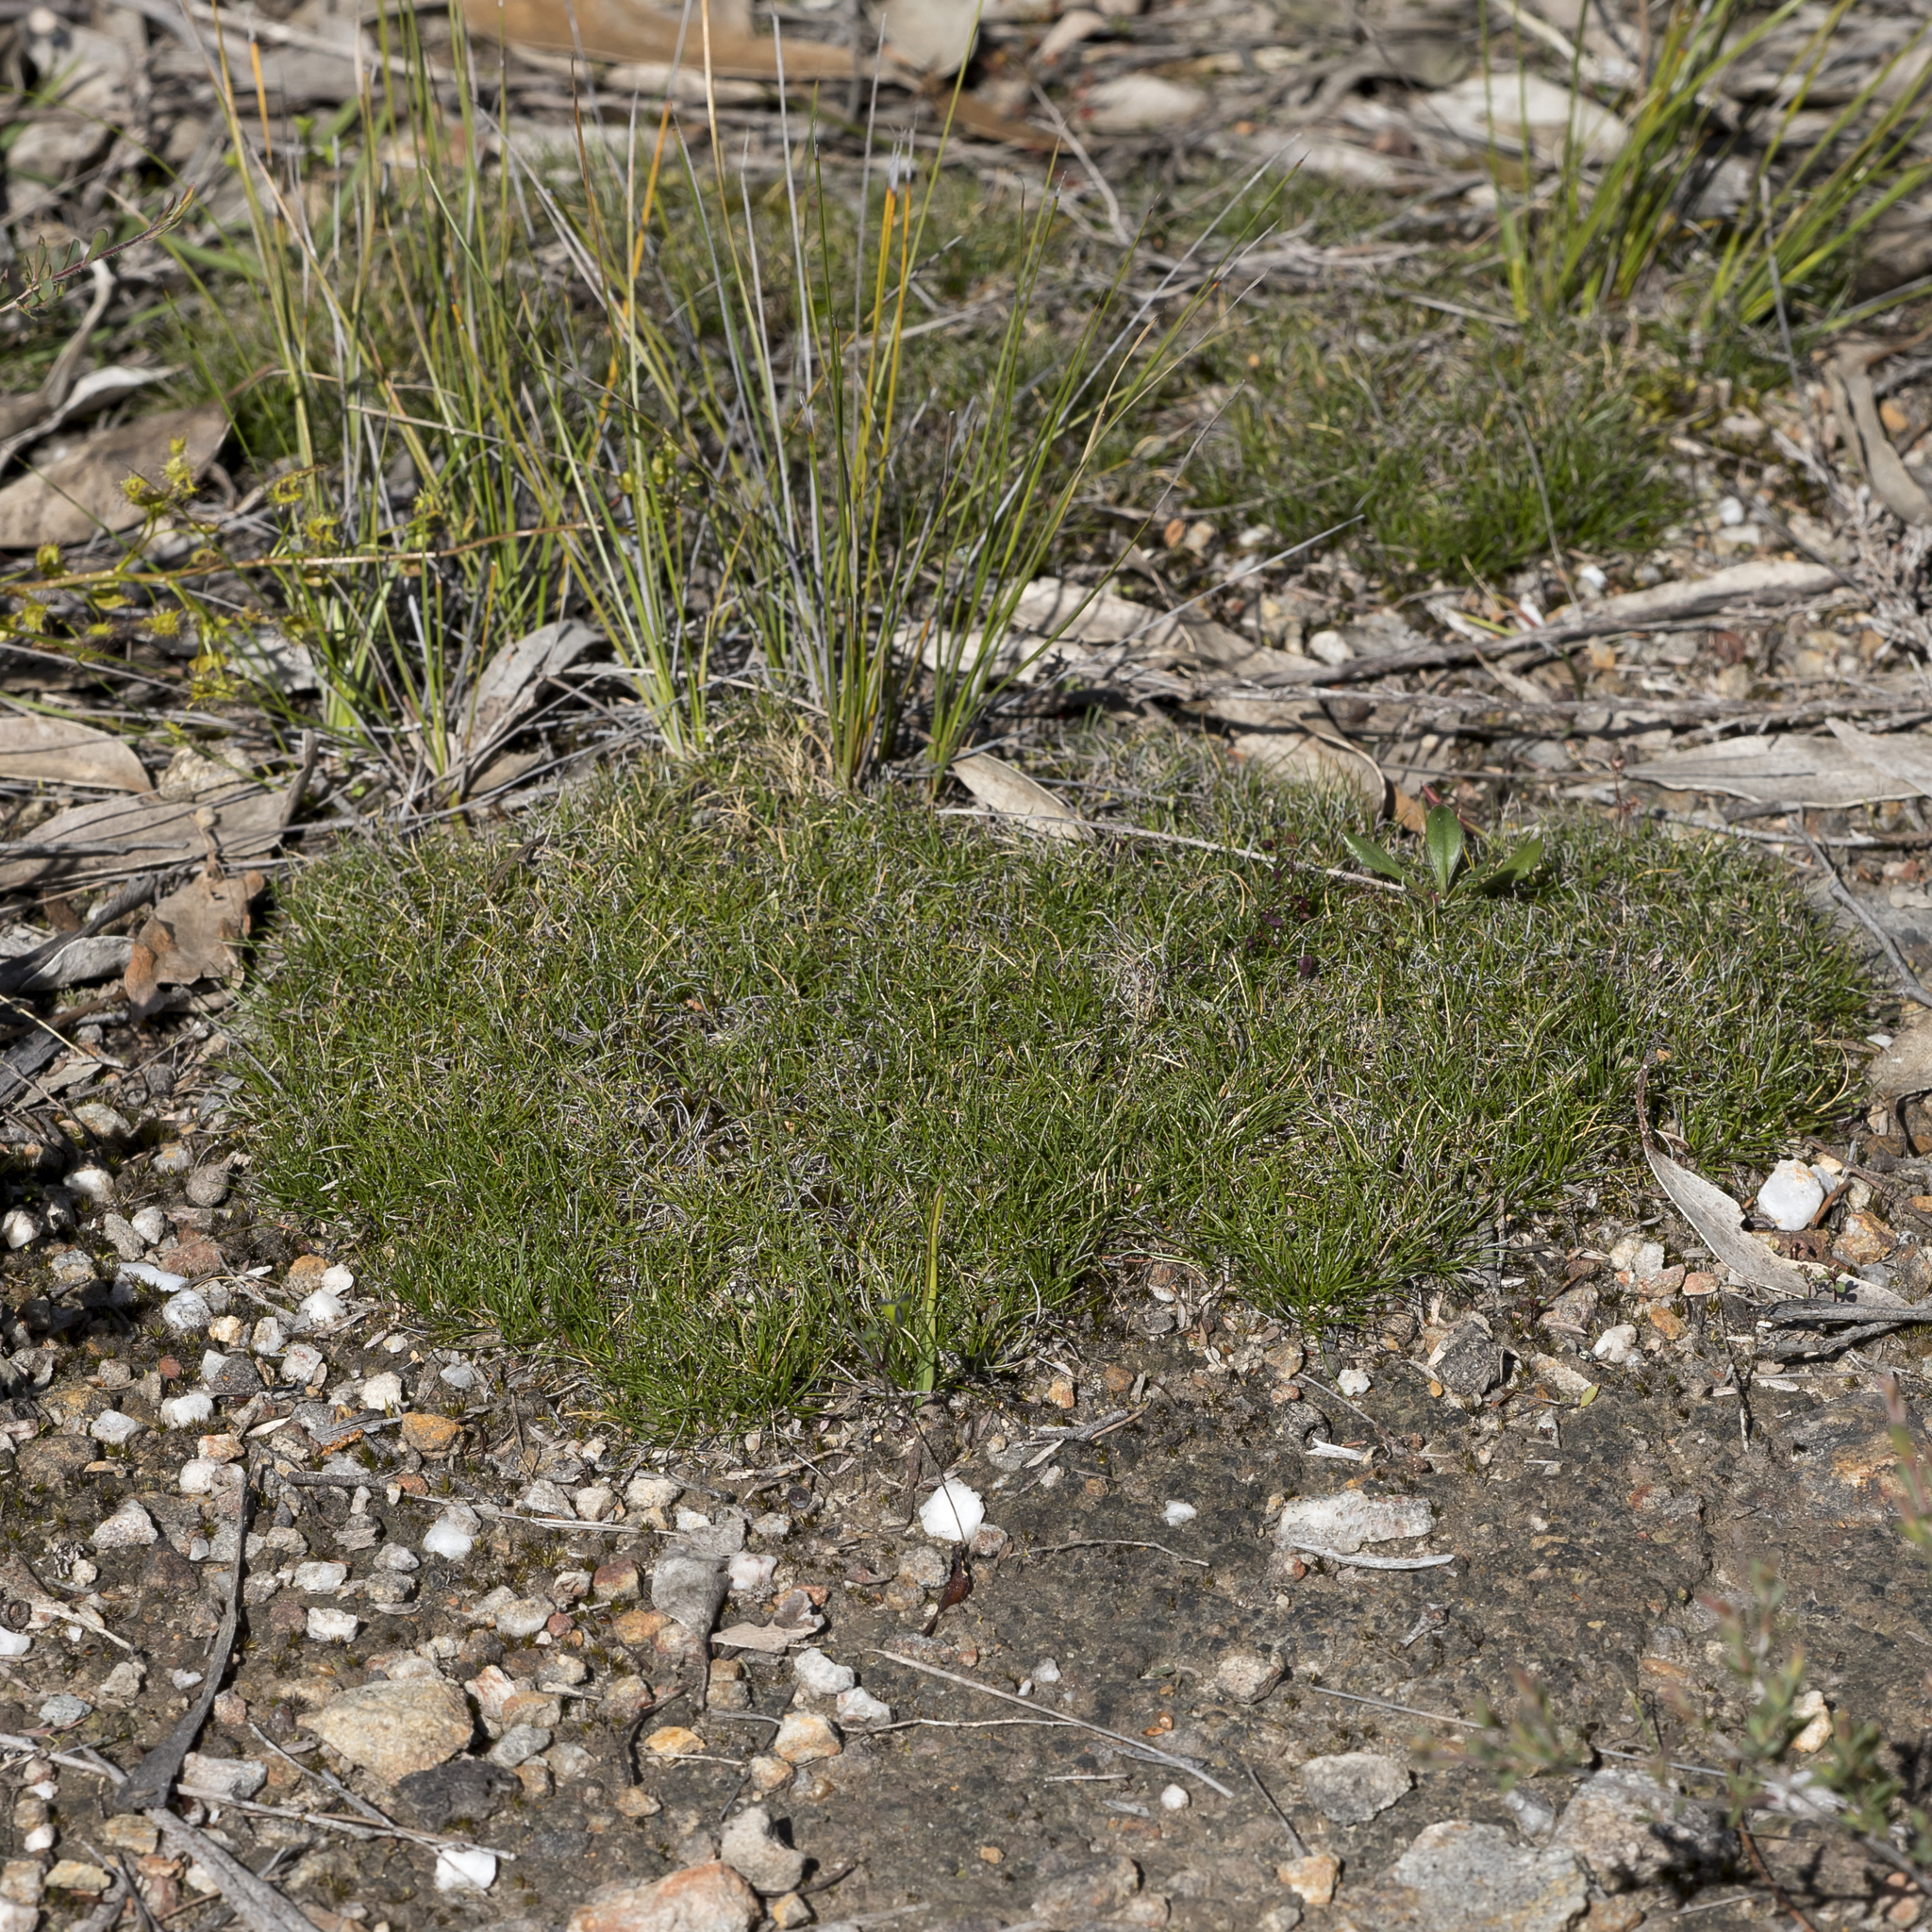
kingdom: Plantae
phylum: Tracheophyta
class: Liliopsida
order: Poales
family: Cyperaceae
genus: Schoenus
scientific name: Schoenus breviculmis
